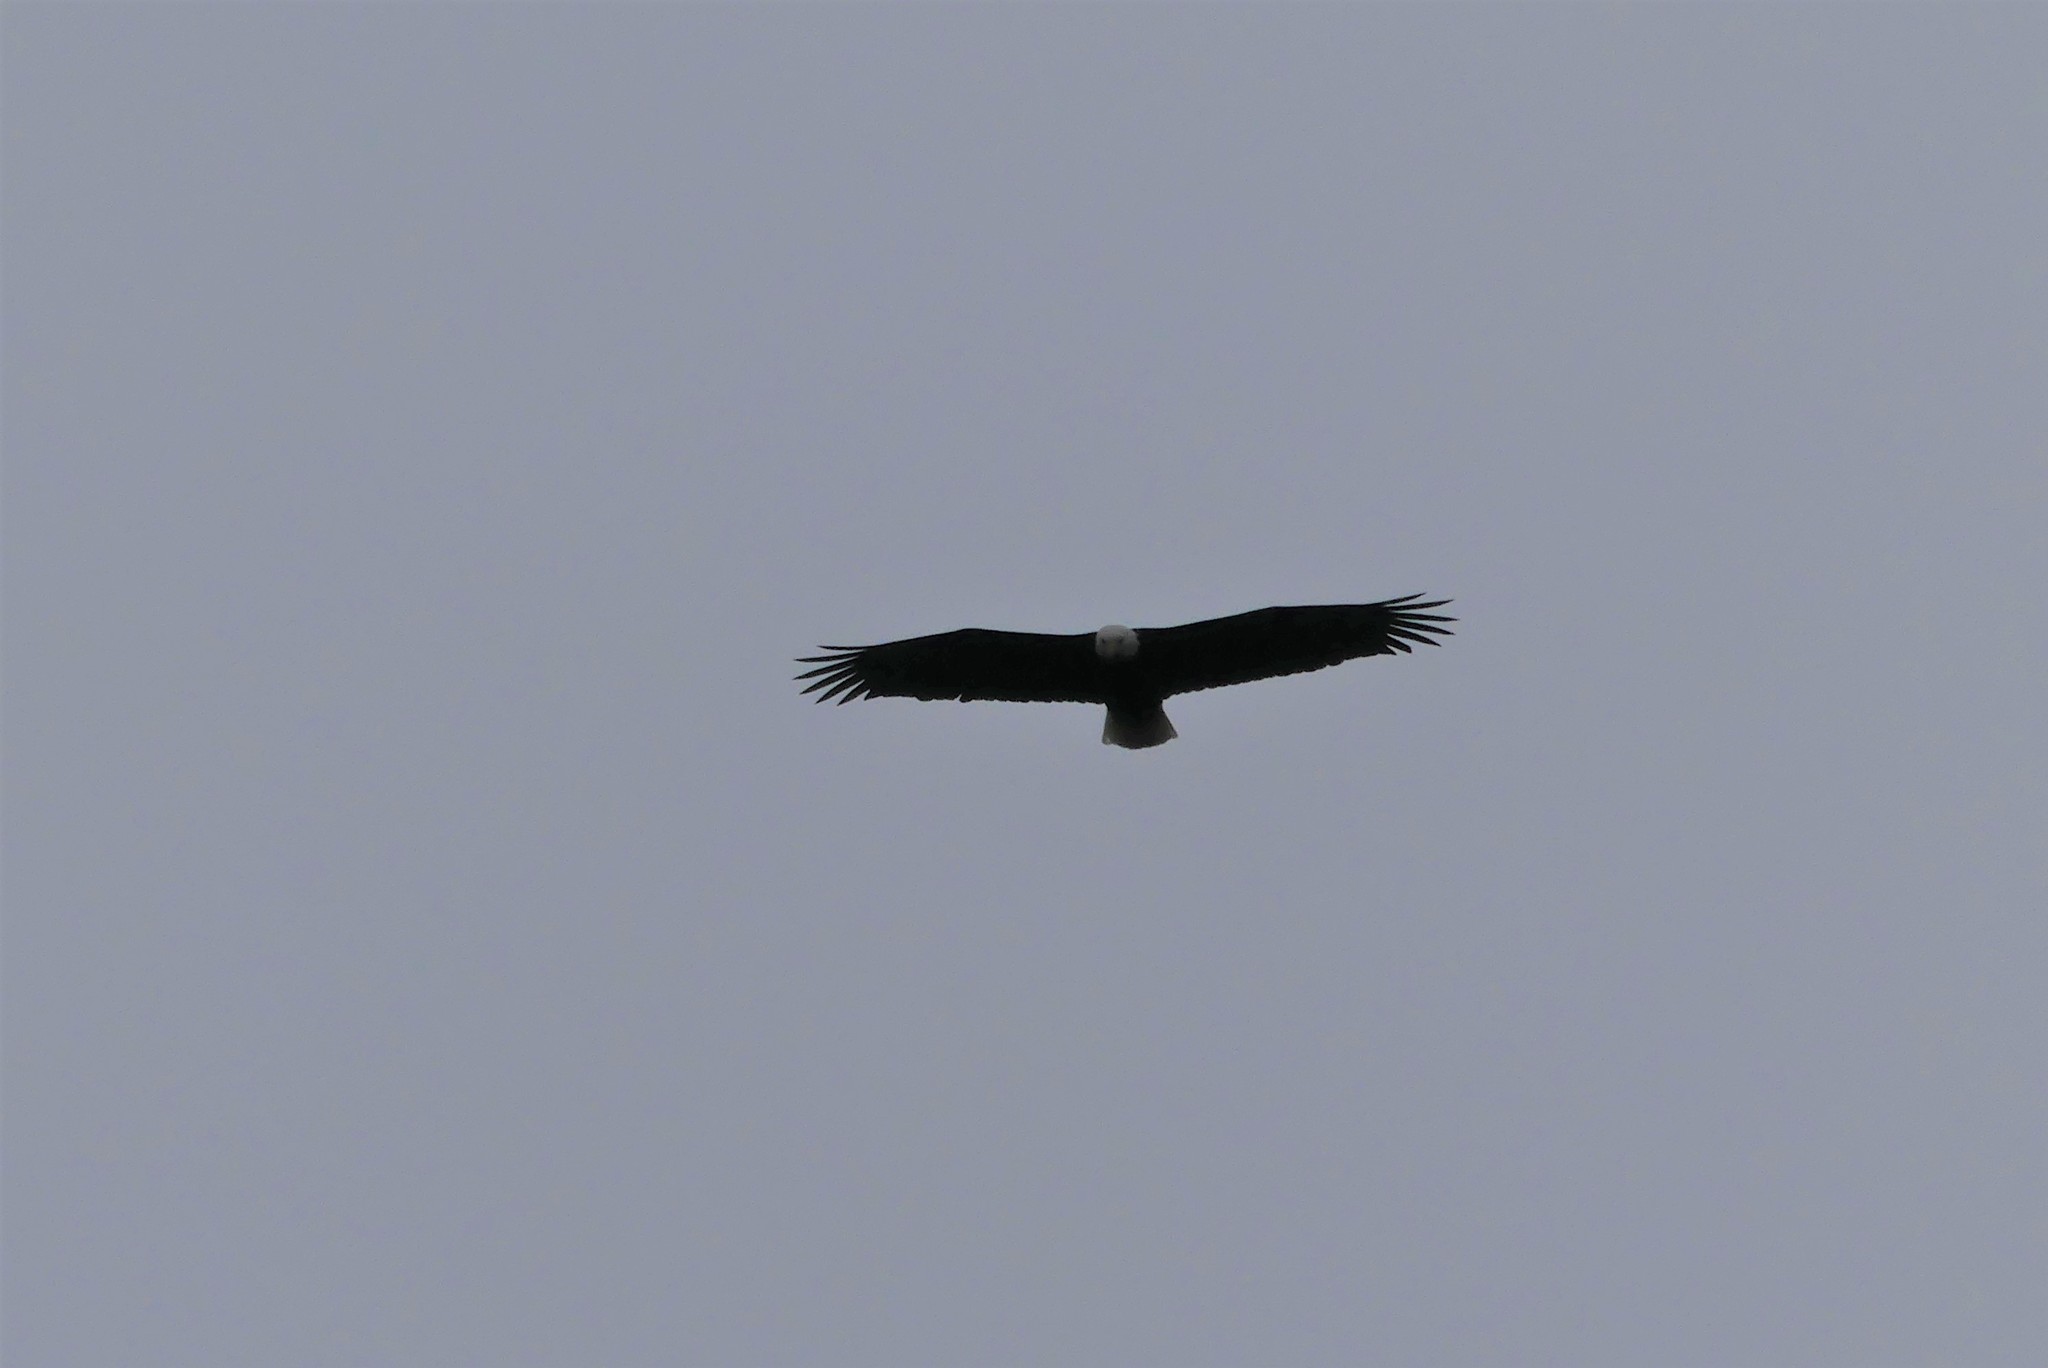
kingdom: Animalia
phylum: Chordata
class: Aves
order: Accipitriformes
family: Accipitridae
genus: Haliaeetus
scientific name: Haliaeetus leucocephalus
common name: Bald eagle
